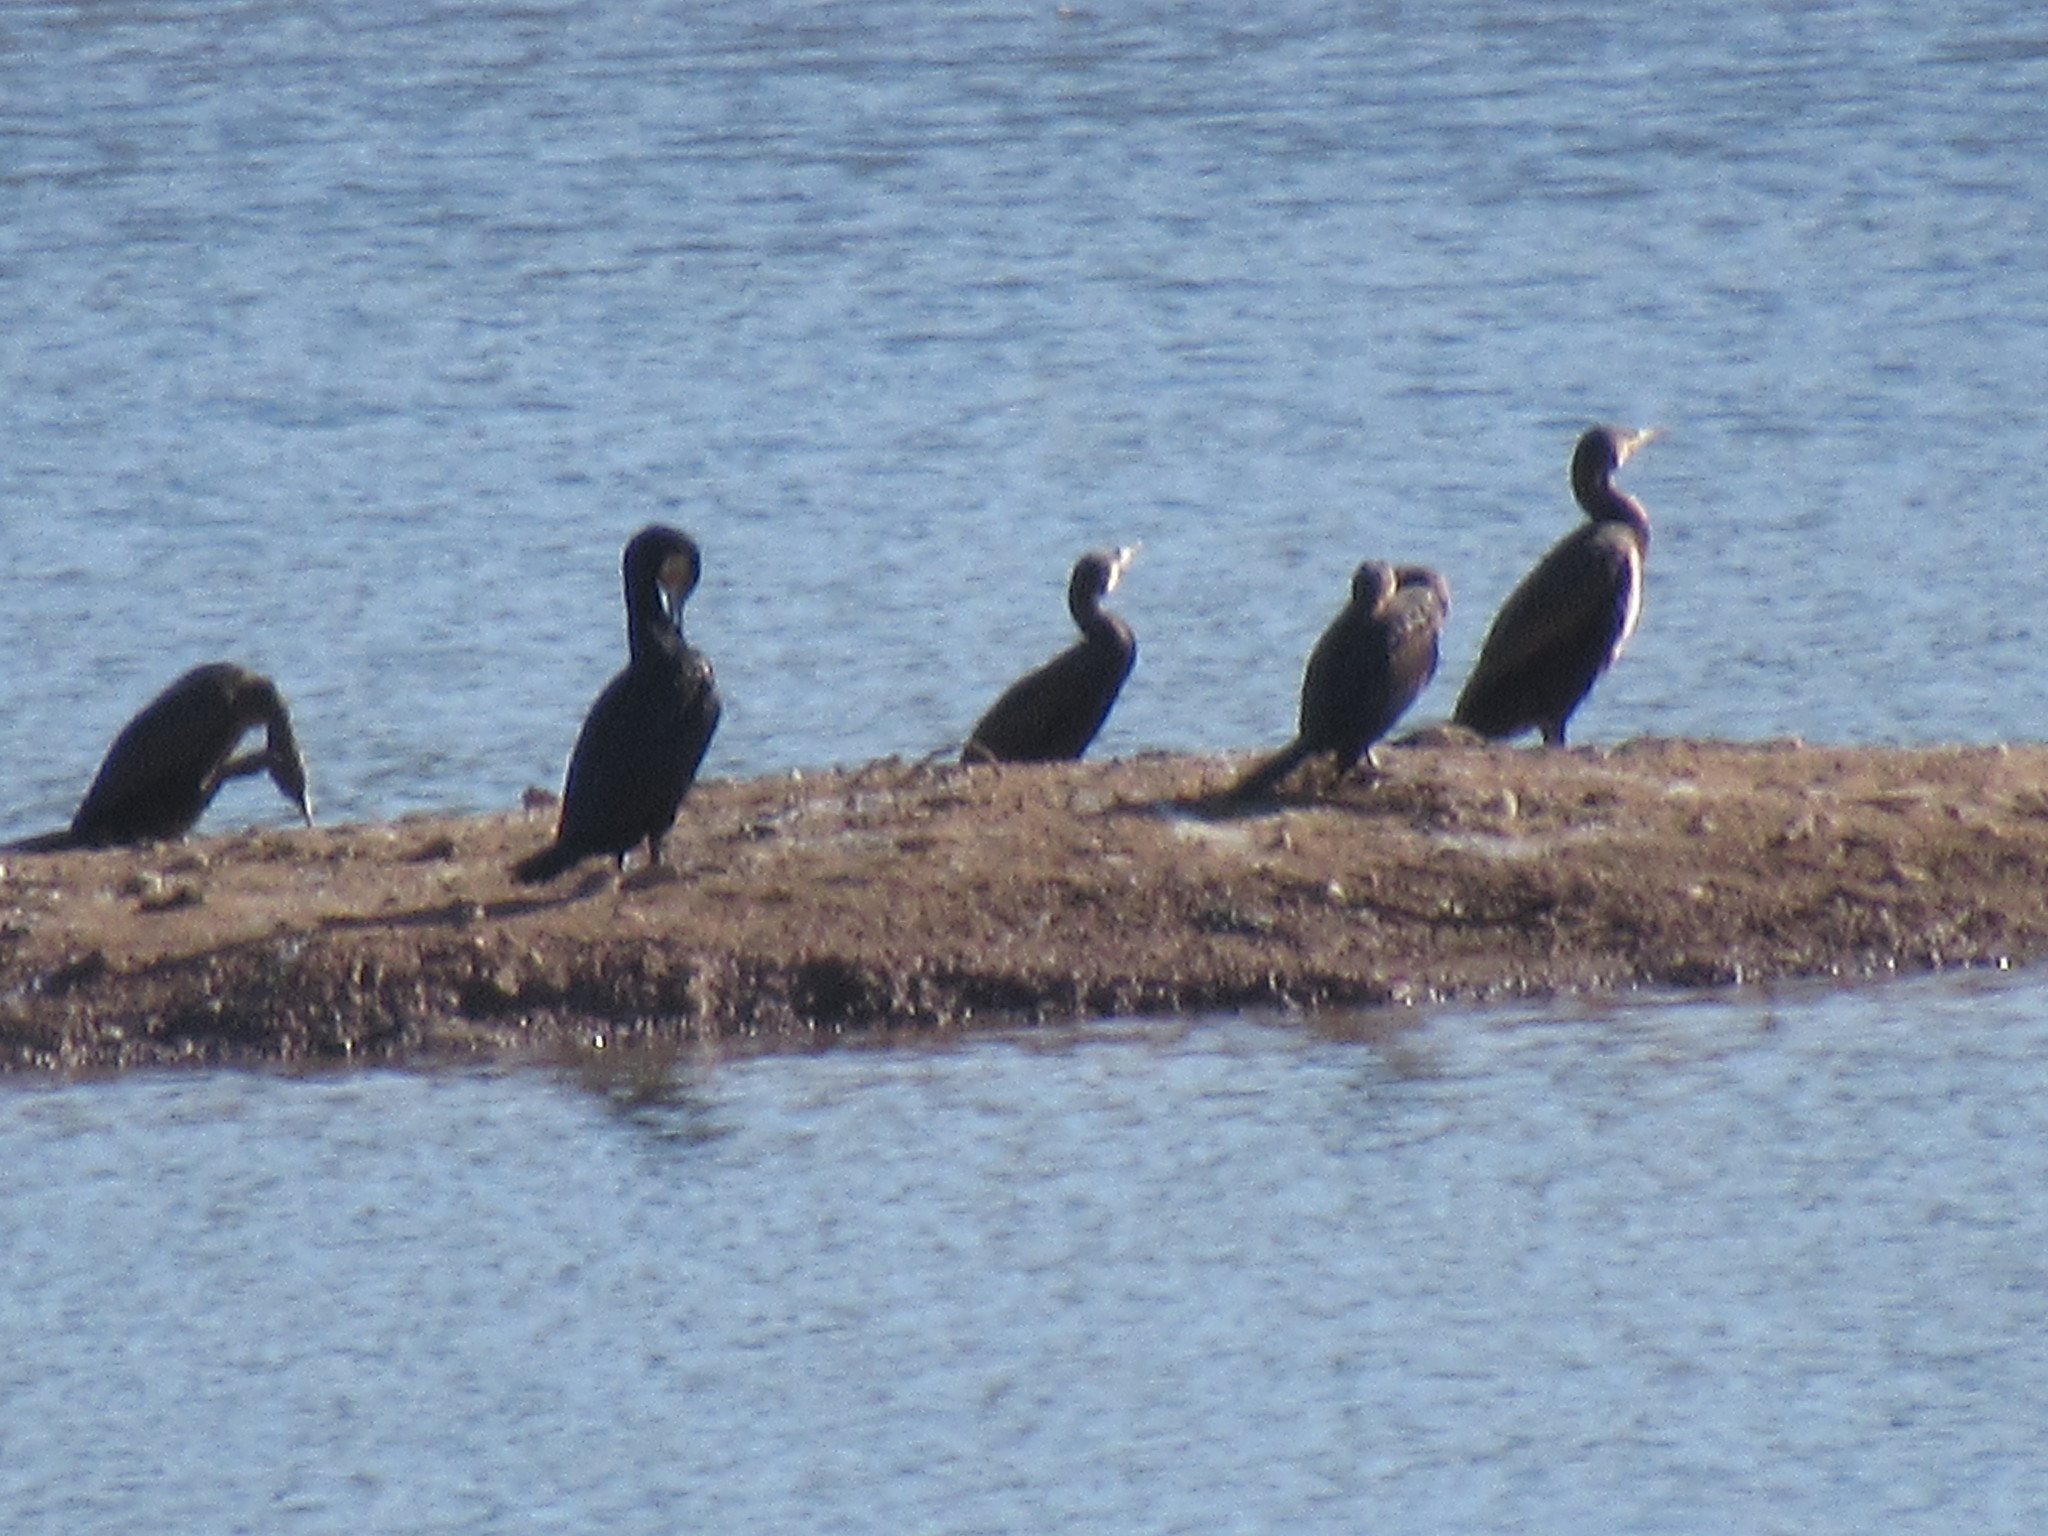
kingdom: Animalia
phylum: Chordata
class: Aves
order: Suliformes
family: Phalacrocoracidae
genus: Phalacrocorax
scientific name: Phalacrocorax carbo
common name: Great cormorant
